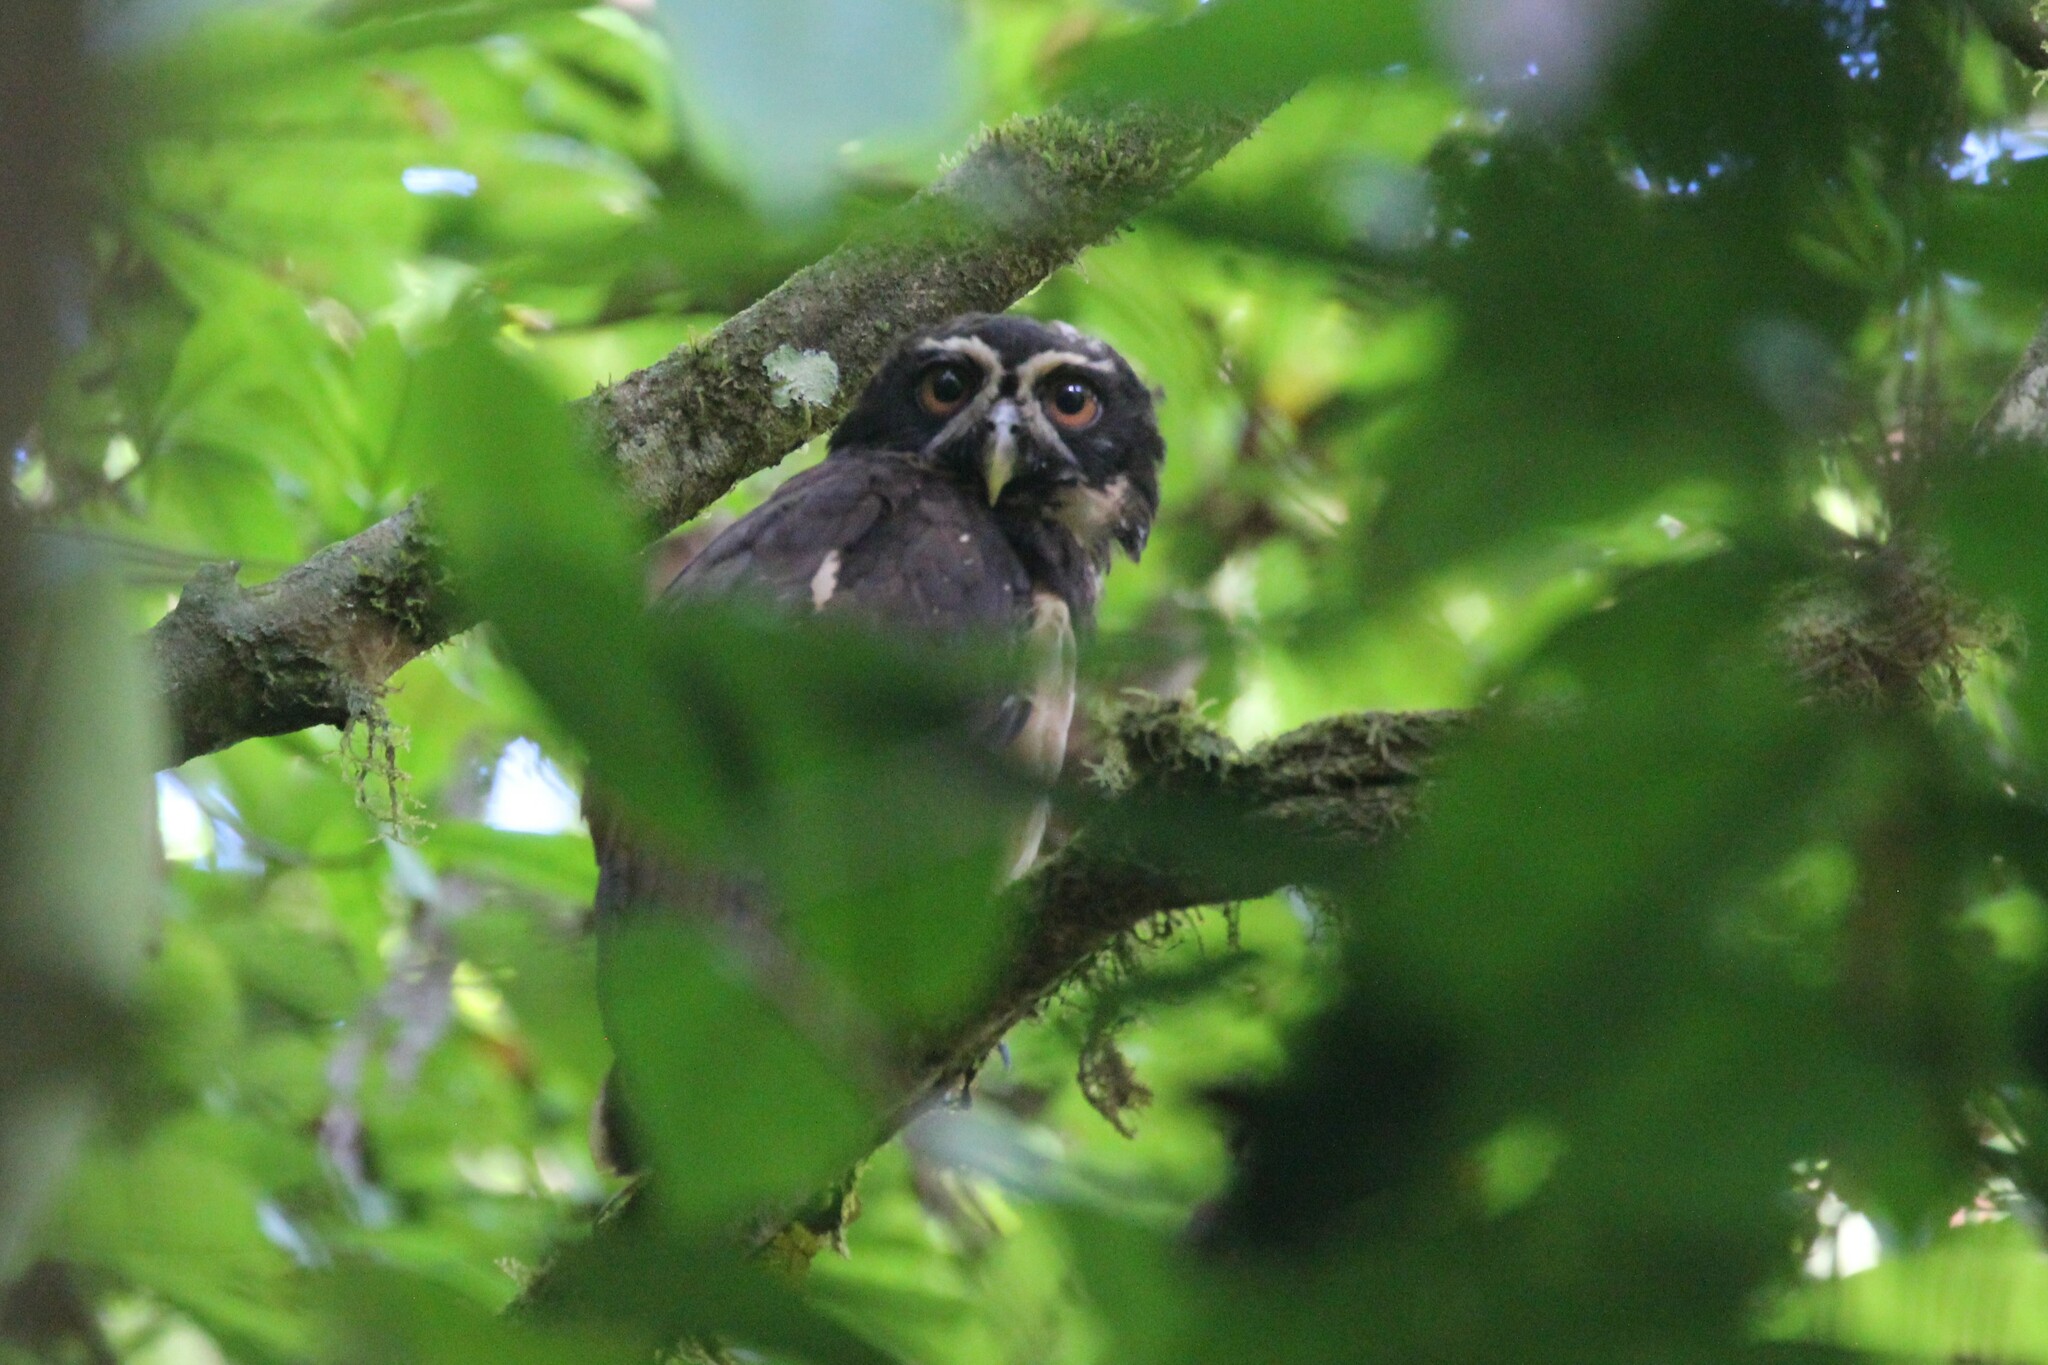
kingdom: Animalia
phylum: Chordata
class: Aves
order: Strigiformes
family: Strigidae
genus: Pulsatrix
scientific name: Pulsatrix perspicillata
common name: Spectacled owl
